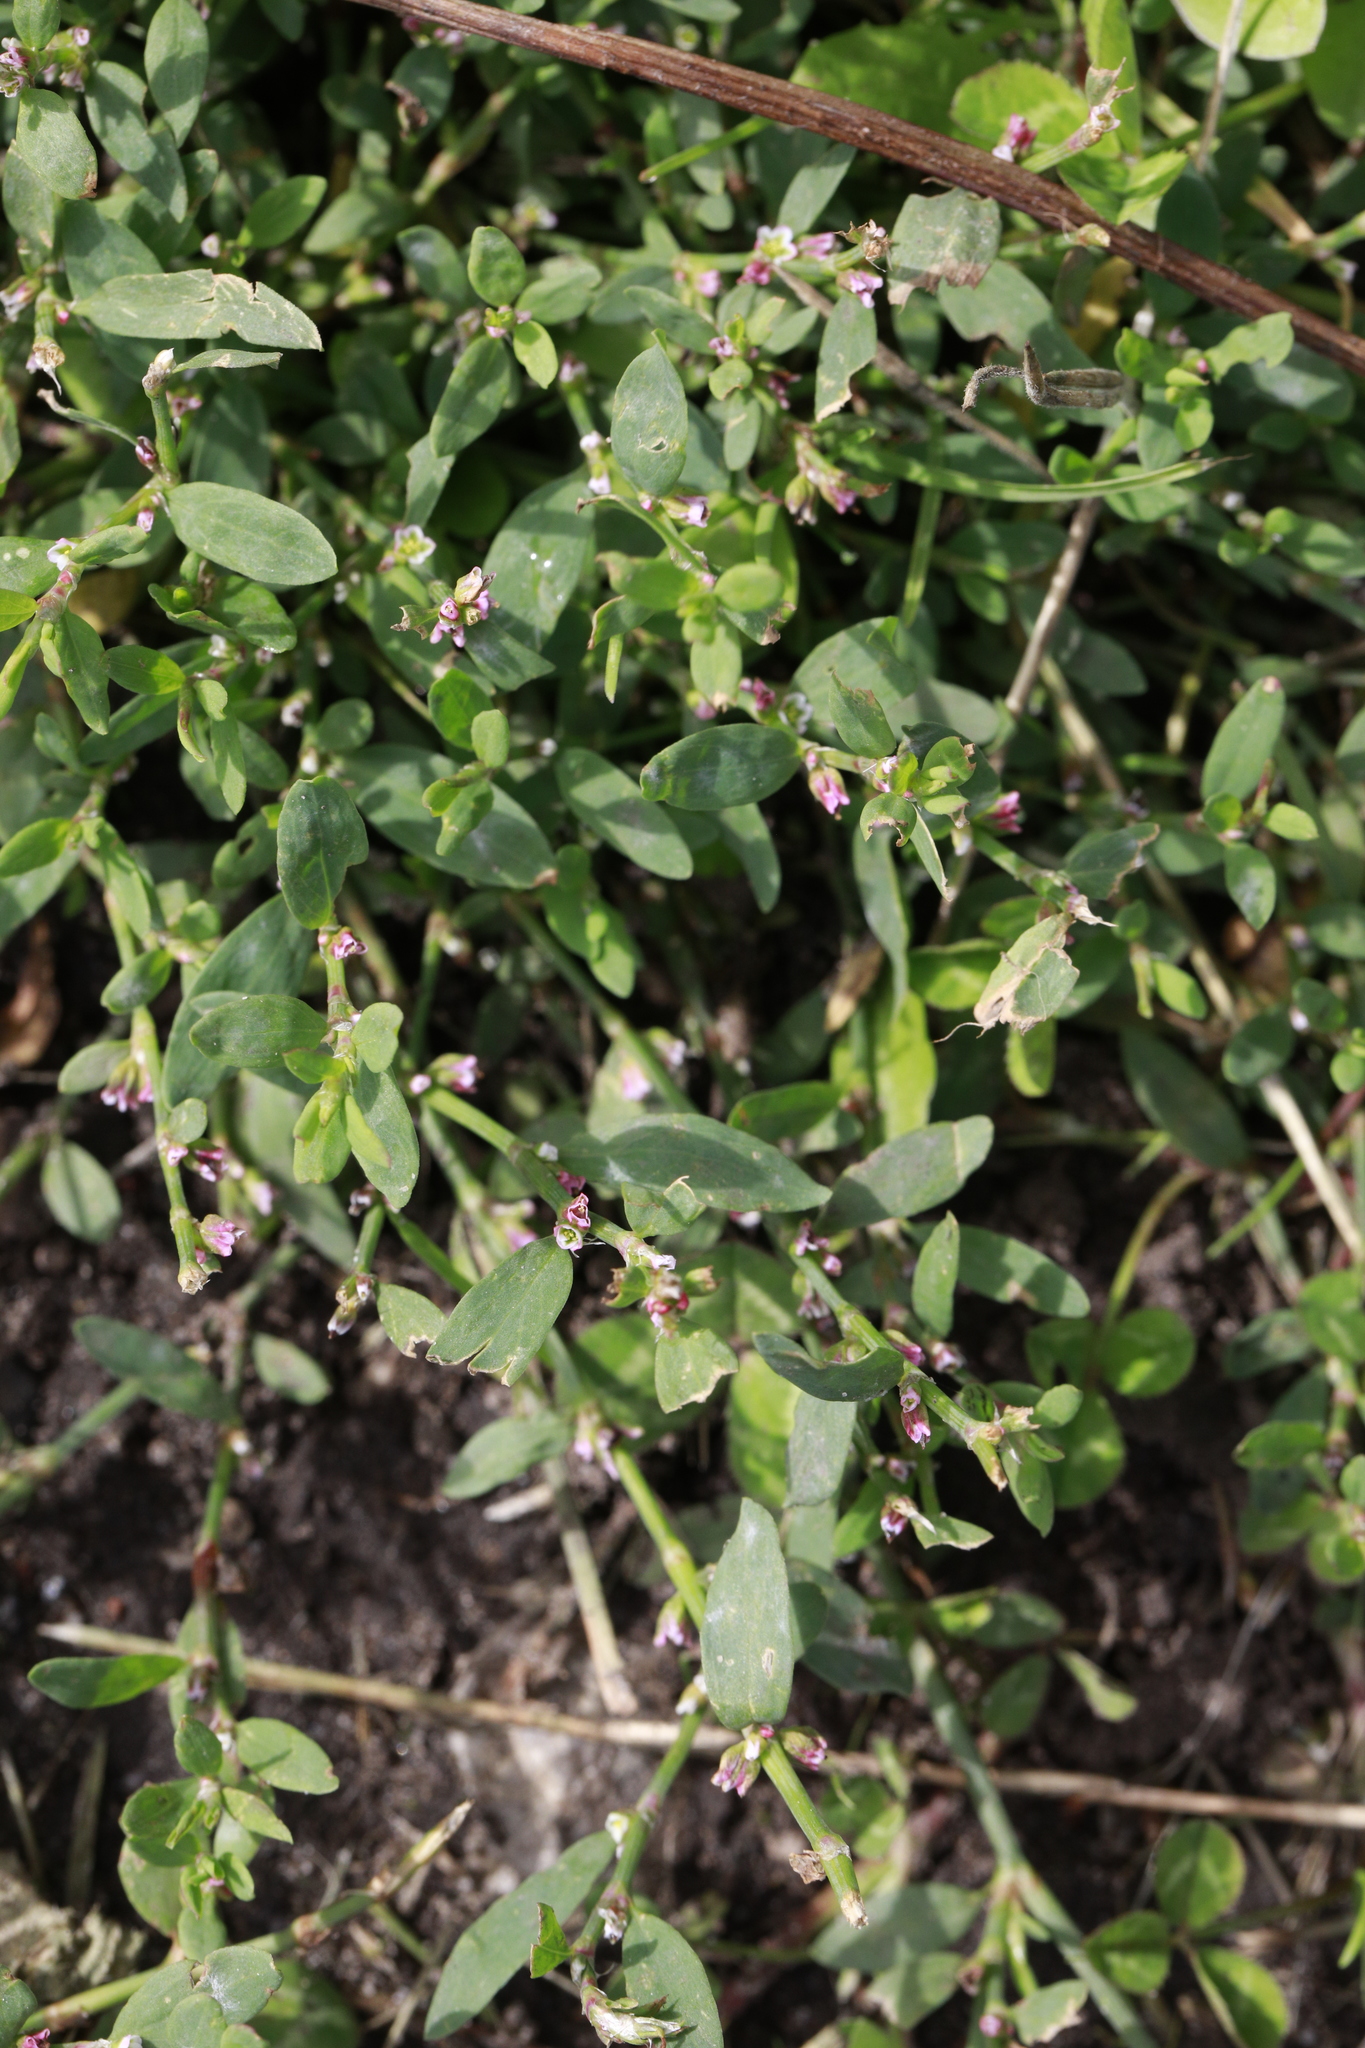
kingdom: Plantae
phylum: Tracheophyta
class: Magnoliopsida
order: Caryophyllales
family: Polygonaceae
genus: Polygonum
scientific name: Polygonum aviculare
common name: Prostrate knotweed
